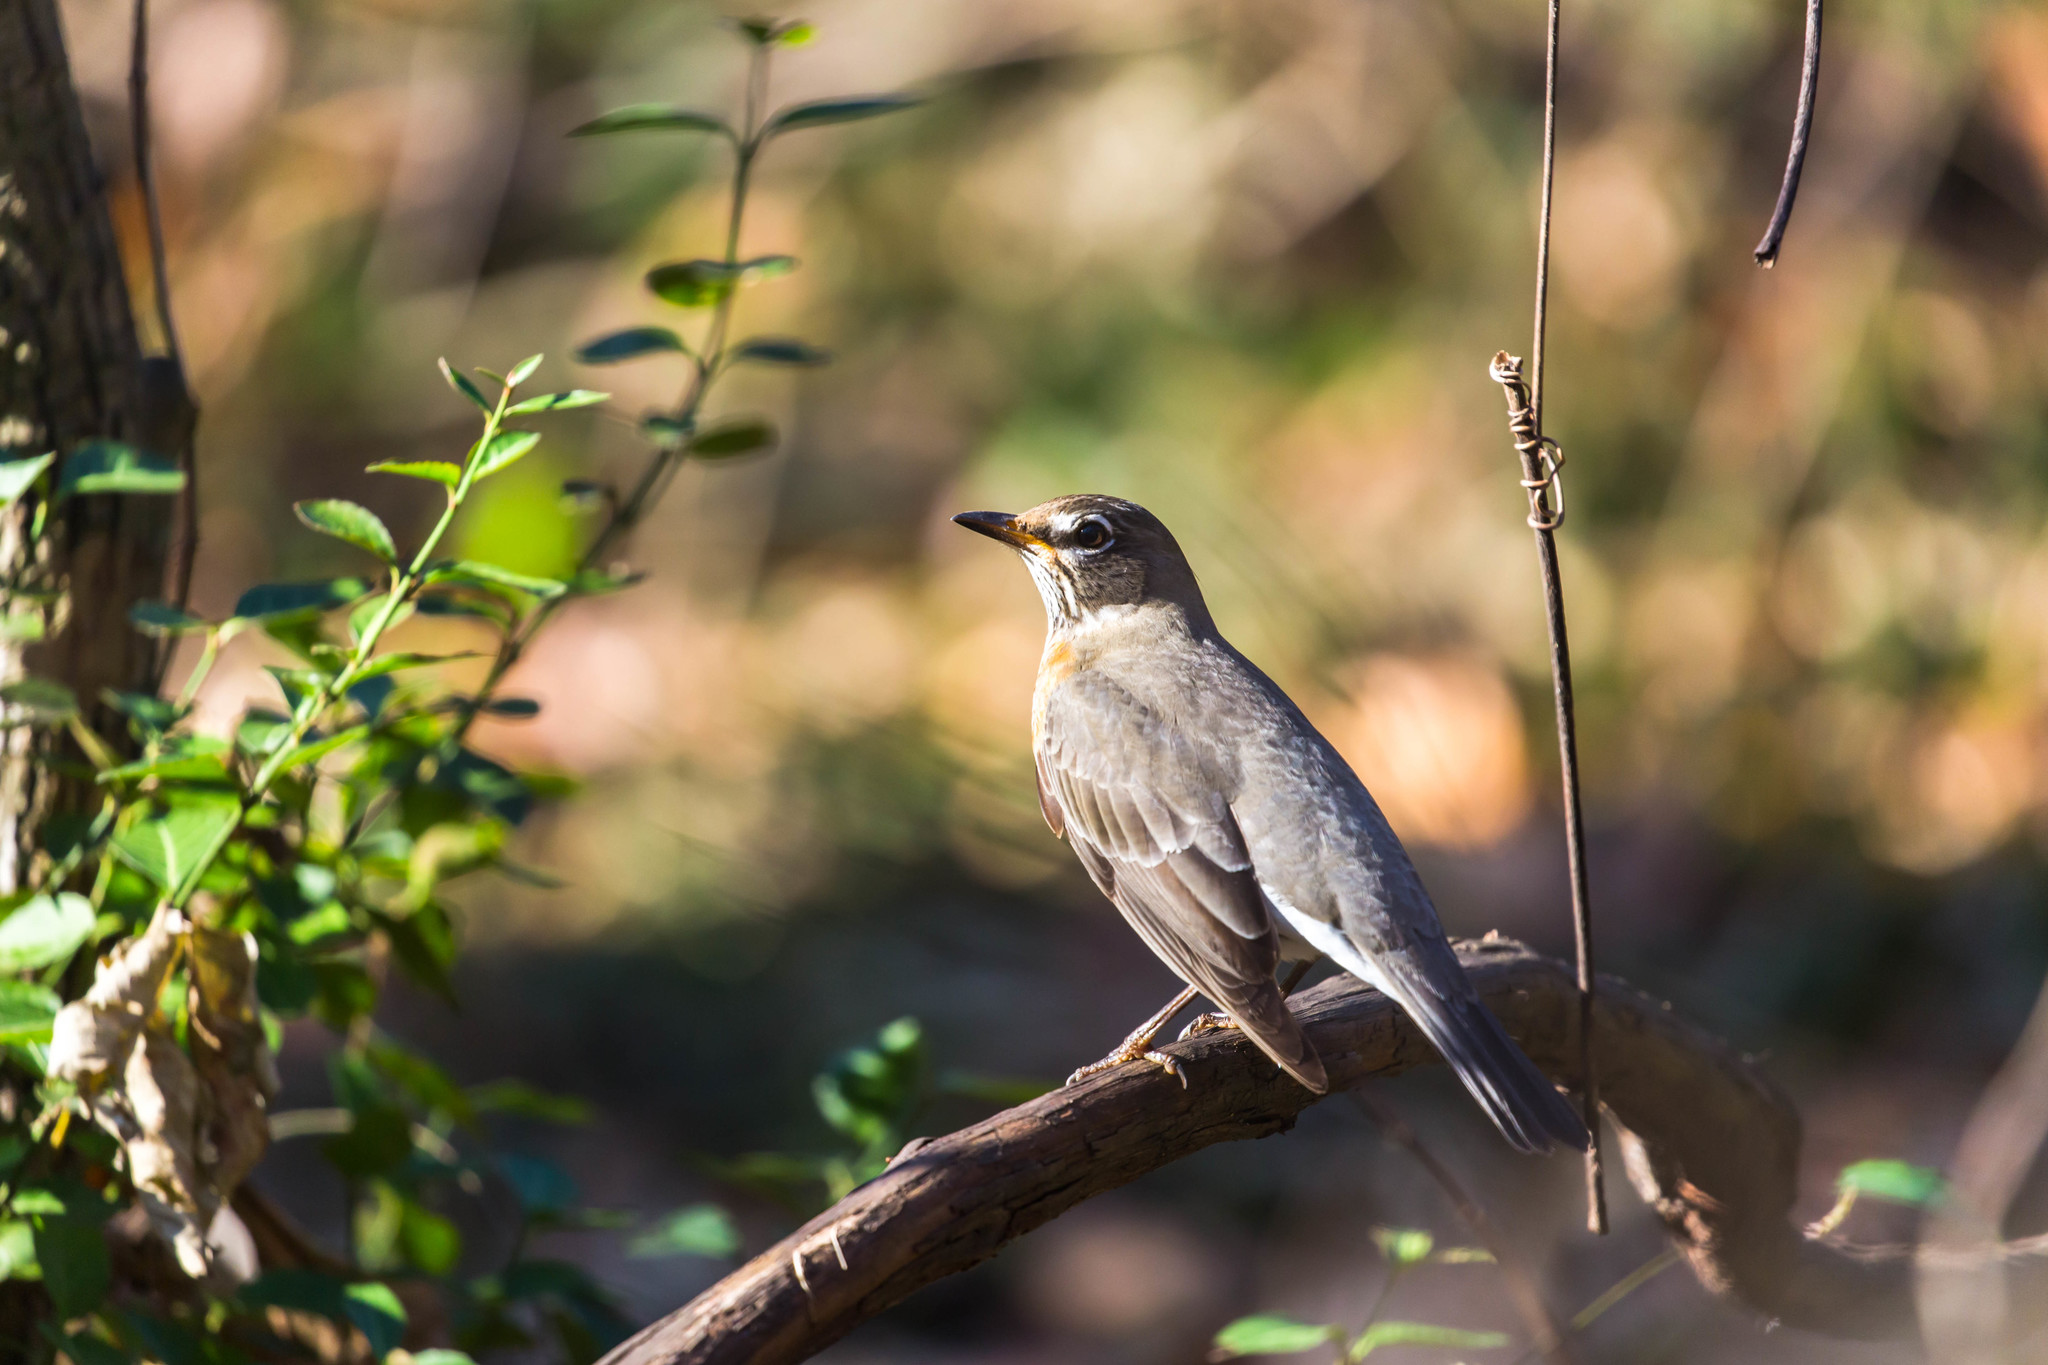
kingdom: Animalia
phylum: Chordata
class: Aves
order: Passeriformes
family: Turdidae
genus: Turdus
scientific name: Turdus migratorius
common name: American robin
